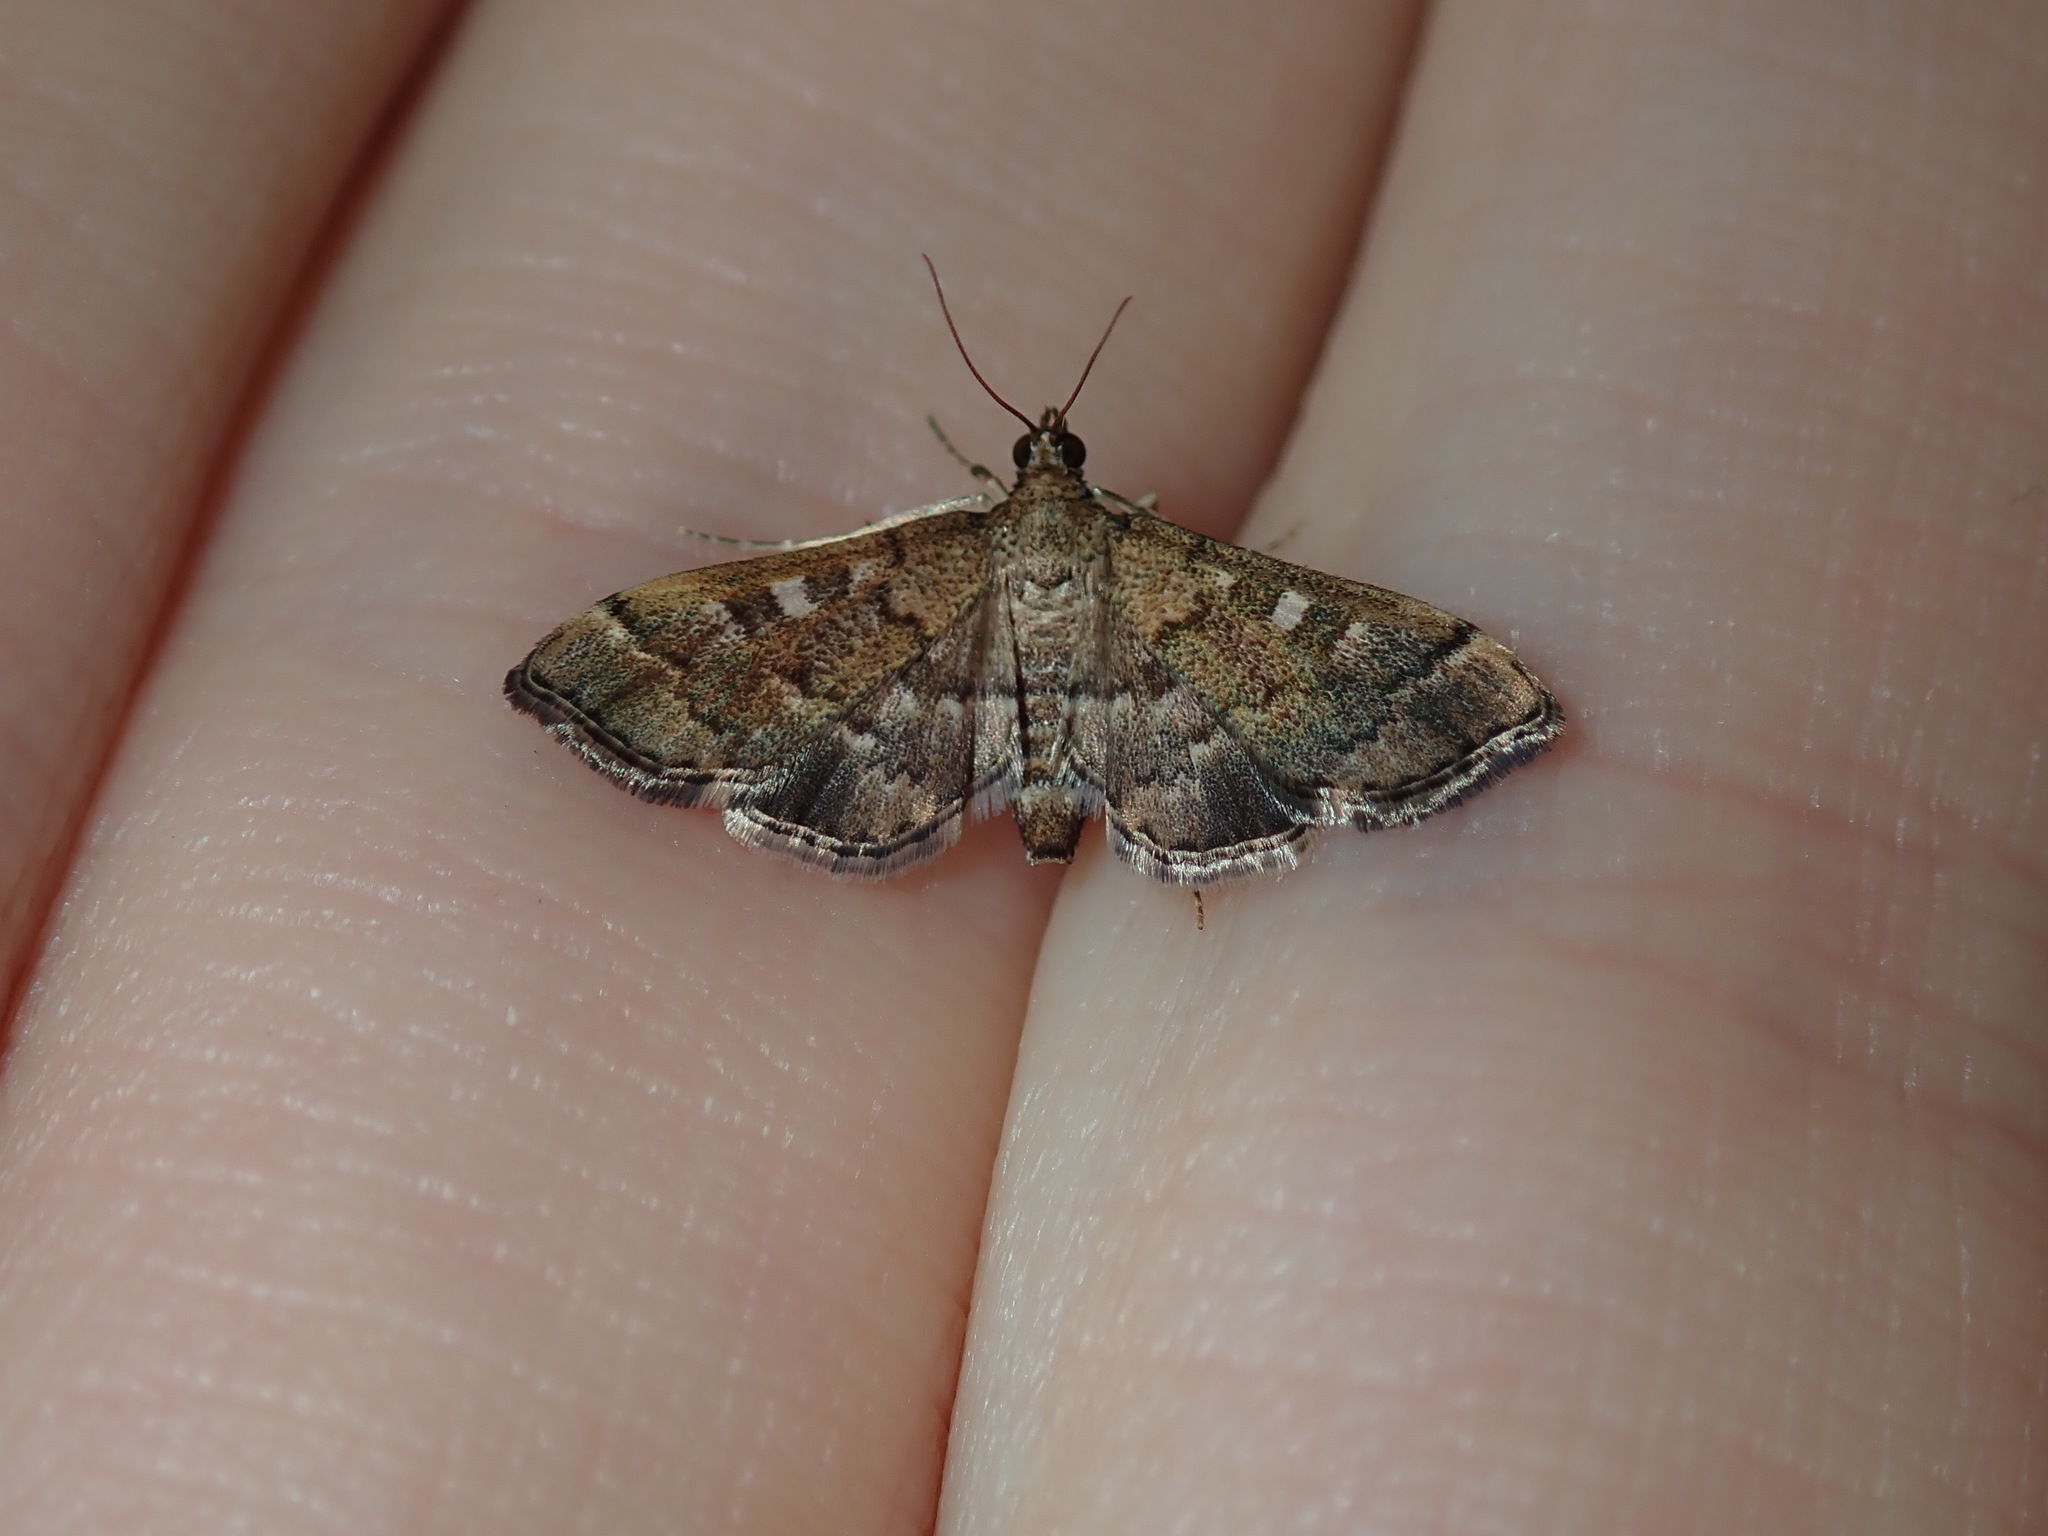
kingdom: Animalia
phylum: Arthropoda
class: Insecta
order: Lepidoptera
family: Crambidae
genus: Nacoleia
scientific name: Nacoleia rhoeoalis
